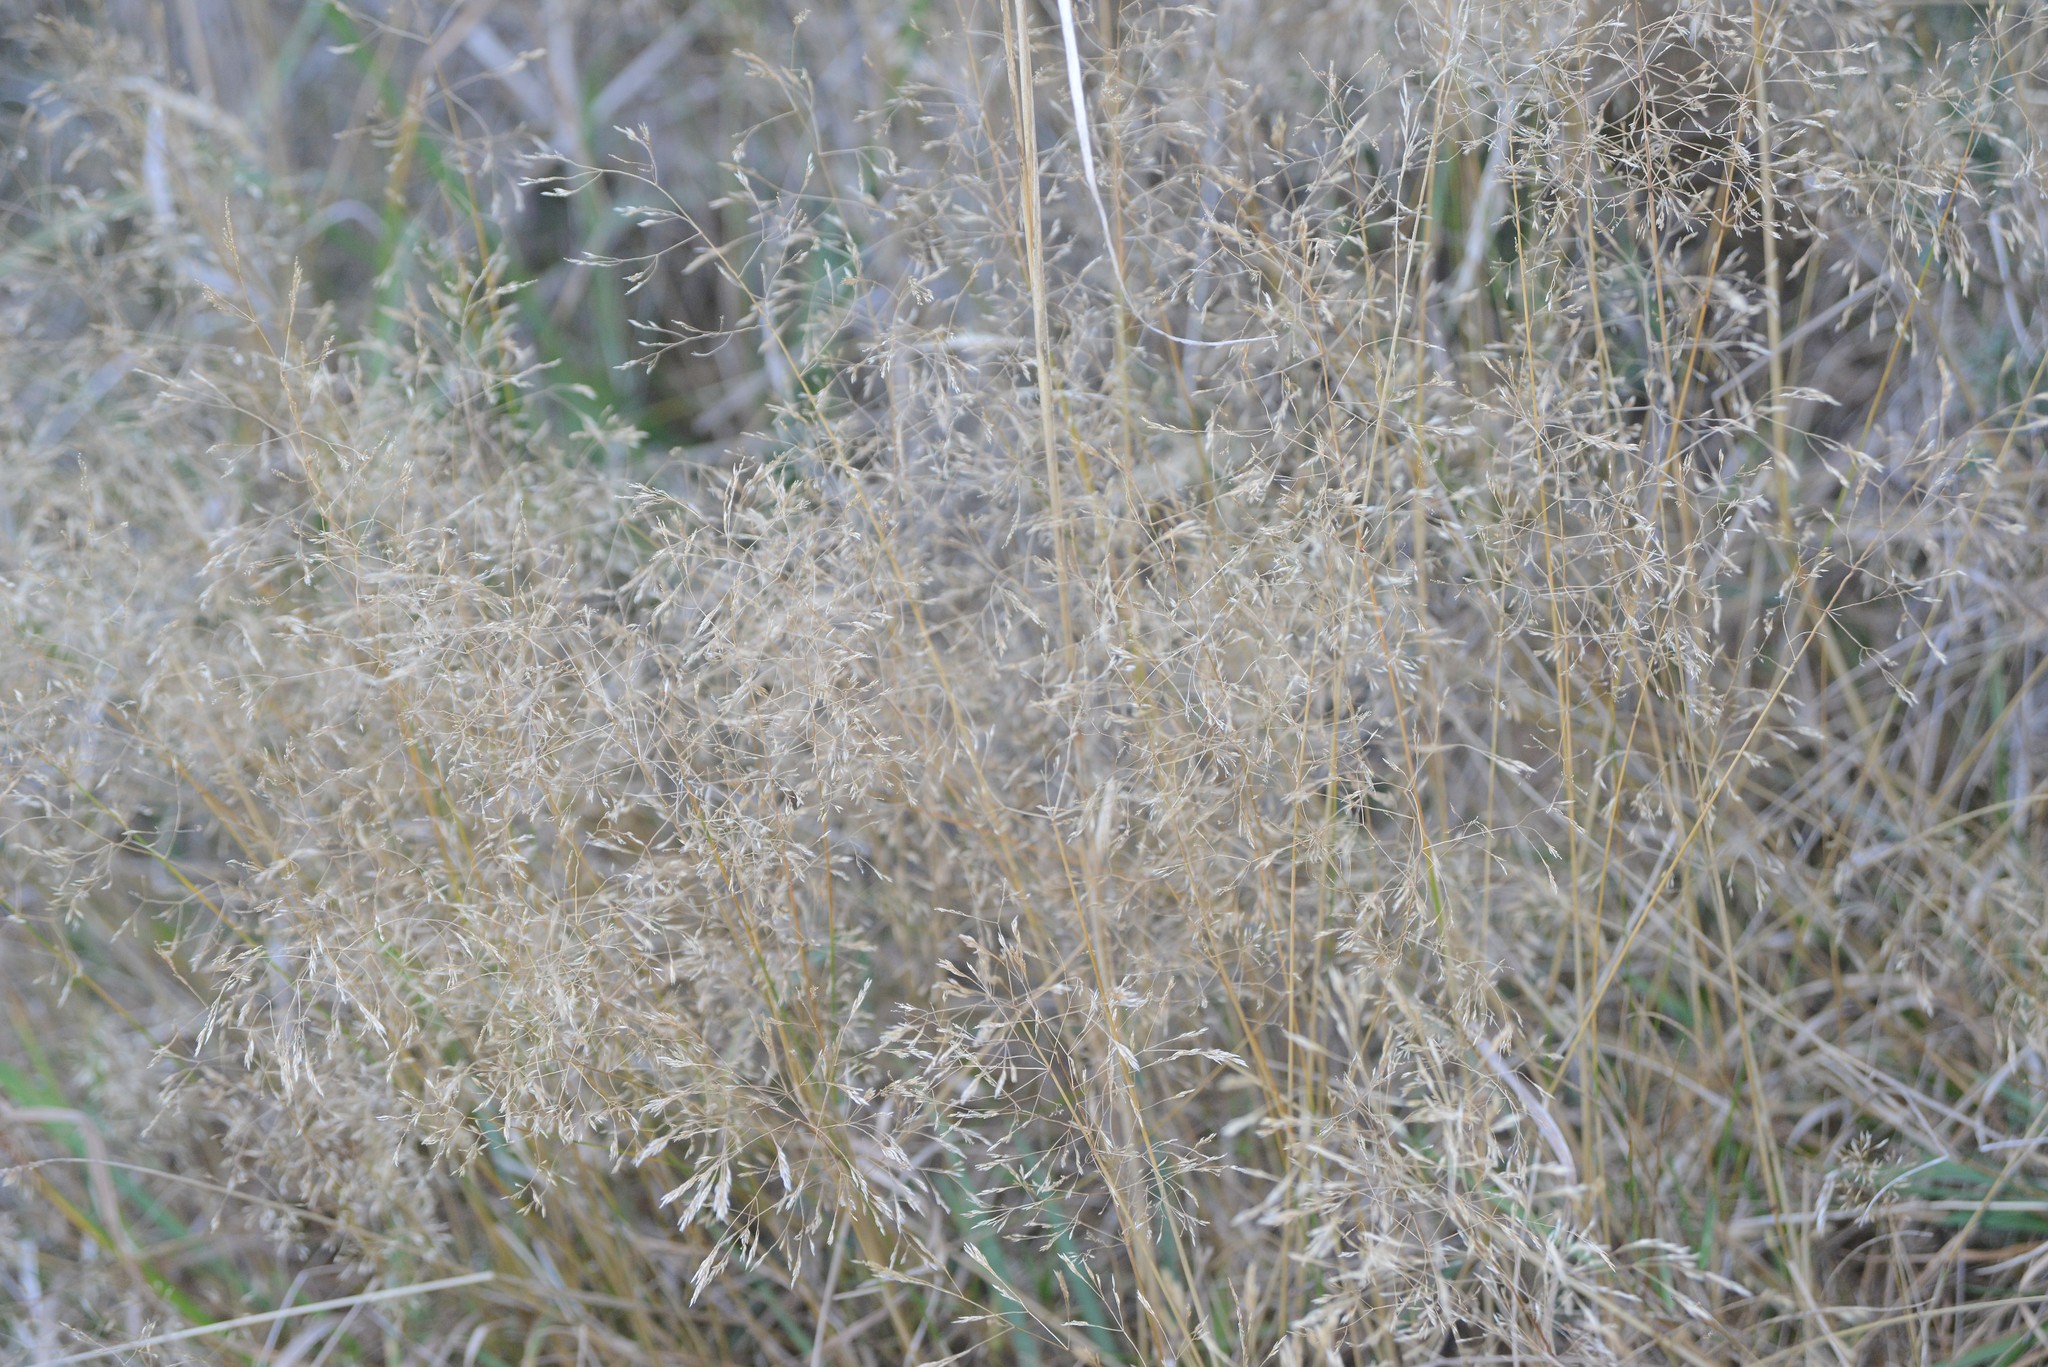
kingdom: Plantae
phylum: Tracheophyta
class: Liliopsida
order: Poales
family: Poaceae
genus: Agrostis
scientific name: Agrostis capillaris
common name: Colonial bentgrass
